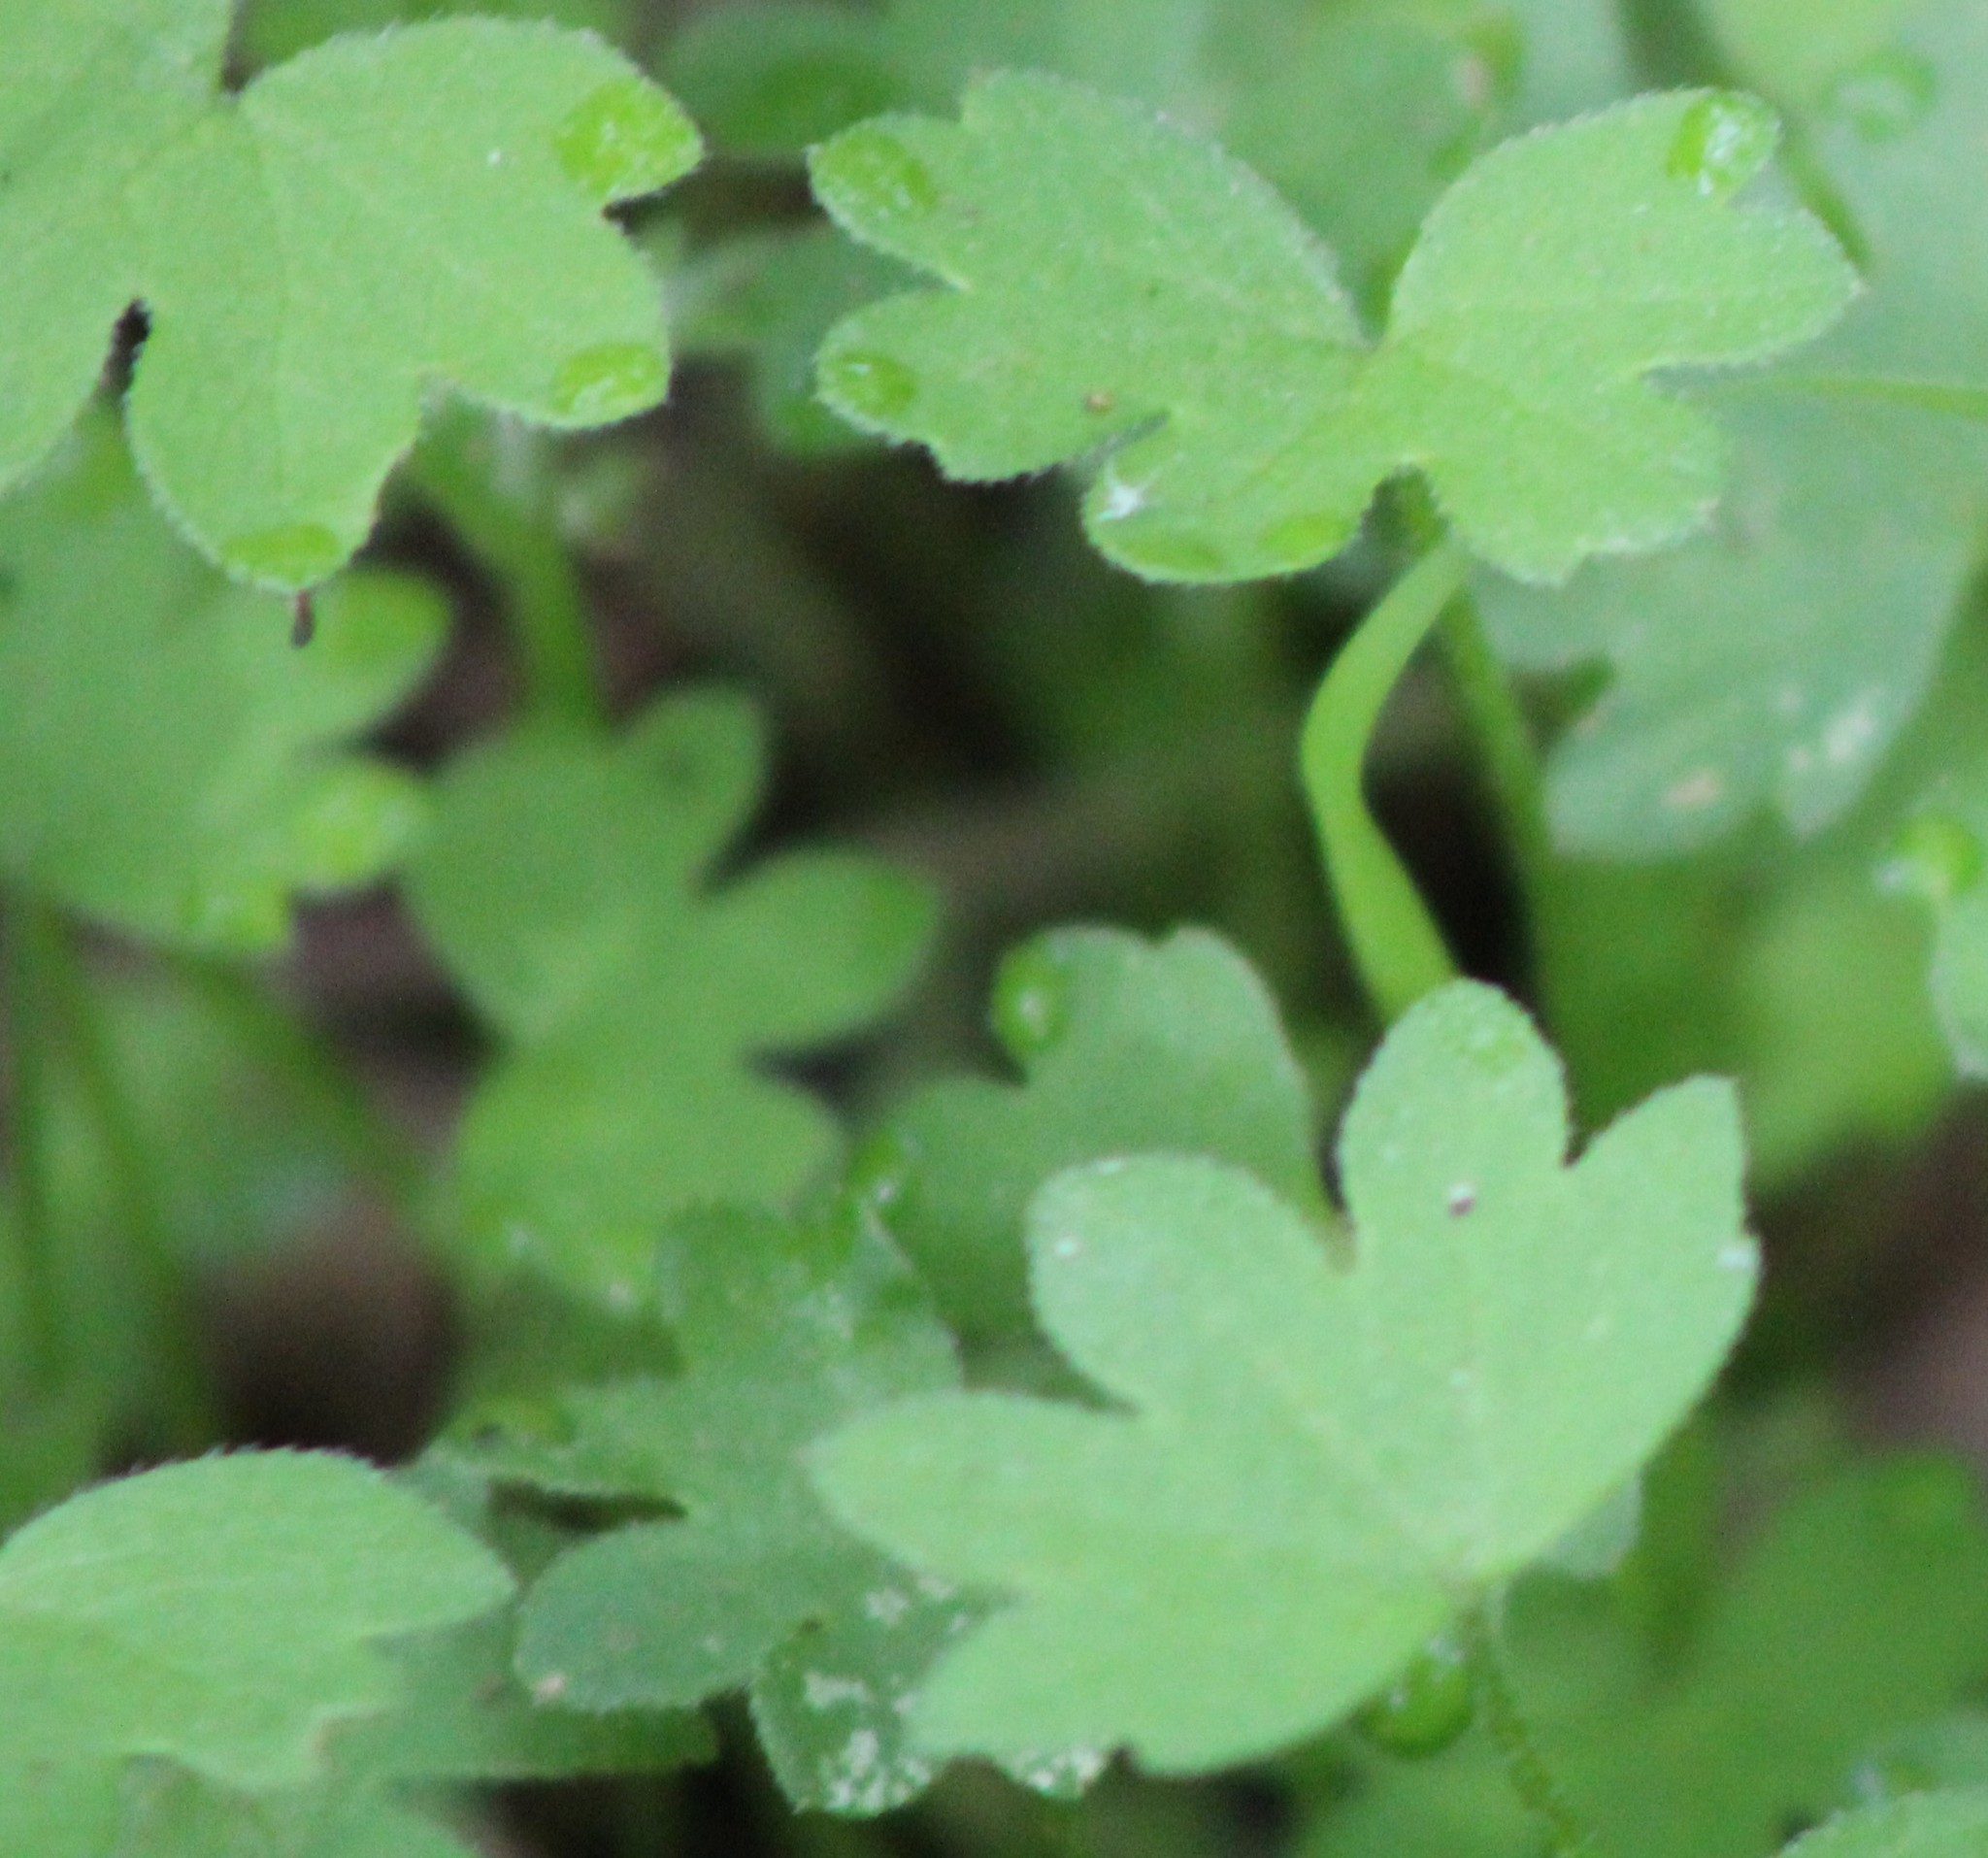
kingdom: Plantae
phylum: Tracheophyta
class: Magnoliopsida
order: Apiales
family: Apiaceae
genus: Bowlesia
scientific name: Bowlesia incana
